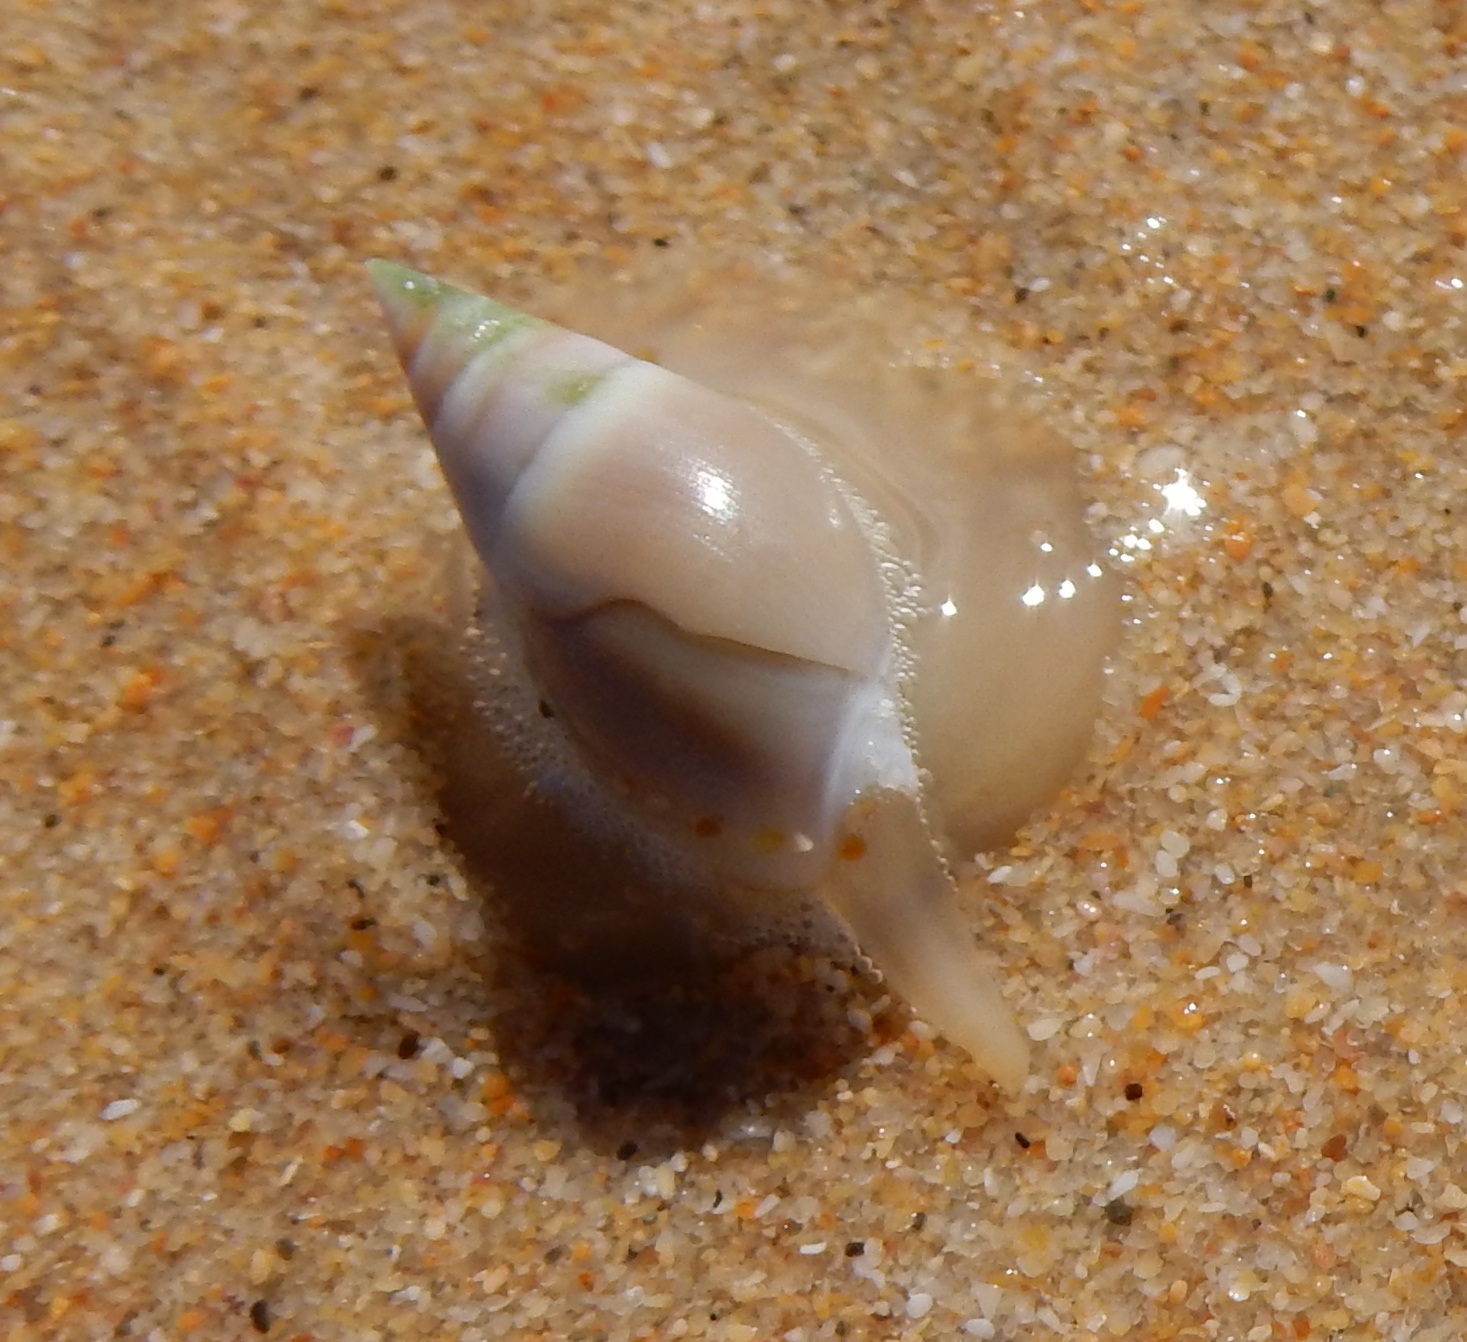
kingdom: Animalia
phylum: Mollusca
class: Gastropoda
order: Neogastropoda
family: Nassariidae
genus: Bullia
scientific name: Bullia rhodostoma
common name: Smooth plough shell
